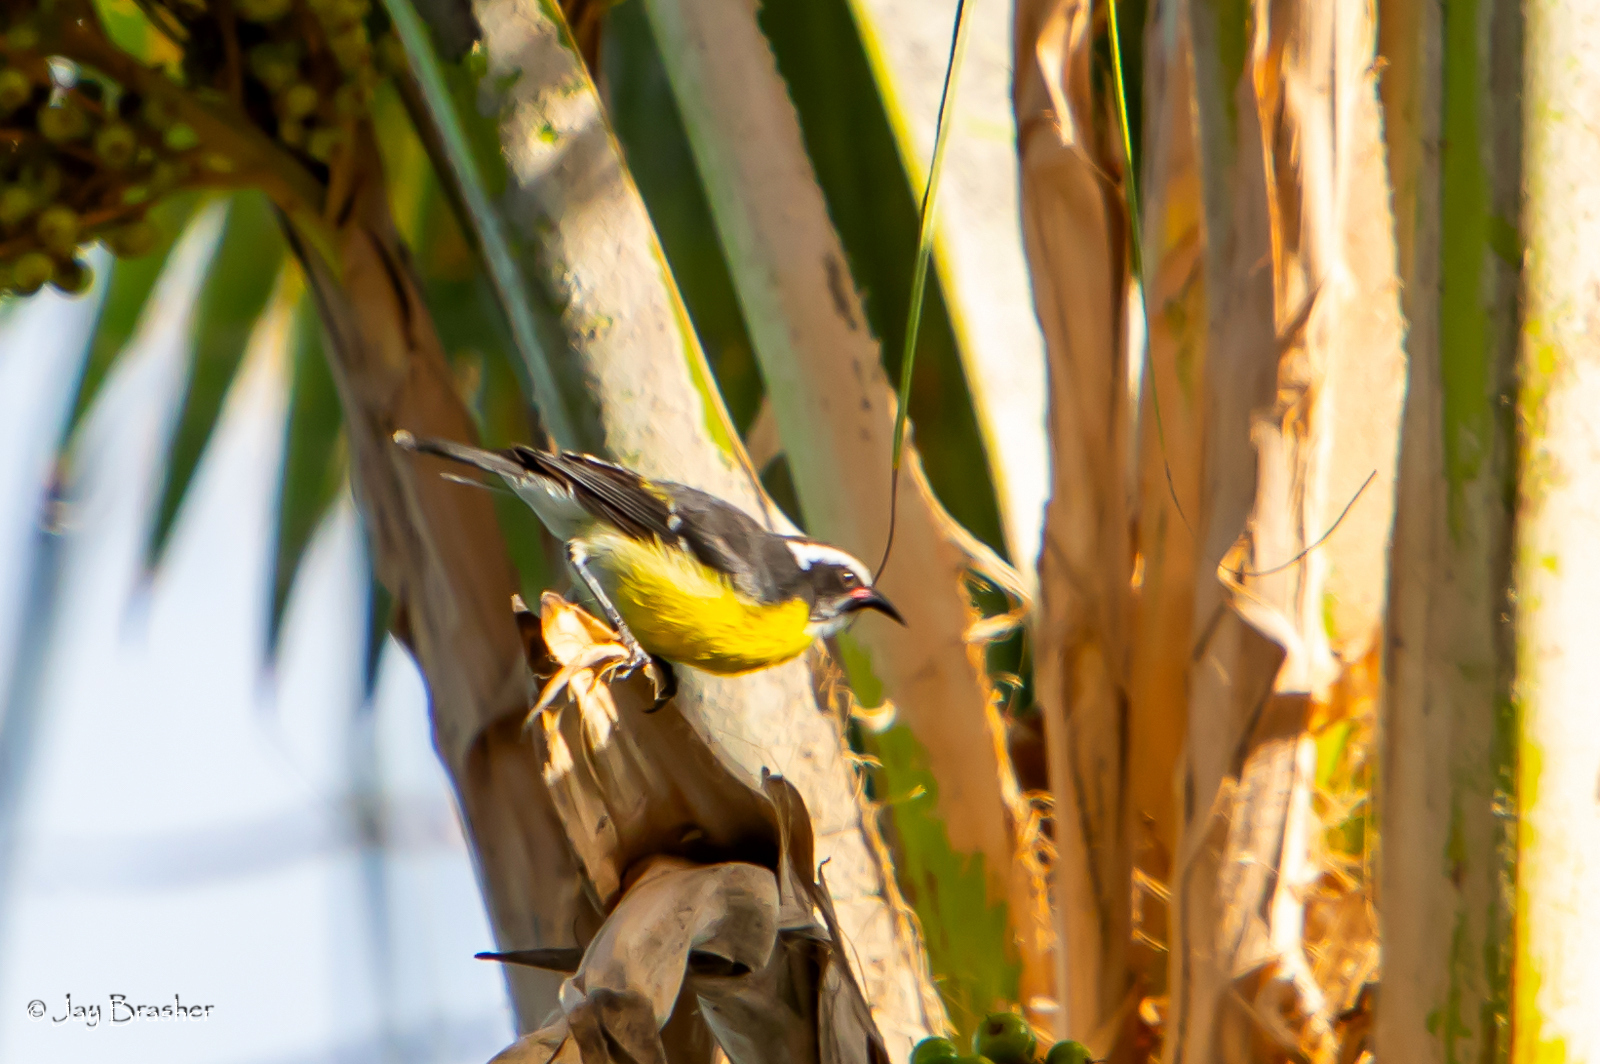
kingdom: Animalia
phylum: Chordata
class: Aves
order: Passeriformes
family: Thraupidae
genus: Coereba
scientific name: Coereba flaveola
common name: Bananaquit
